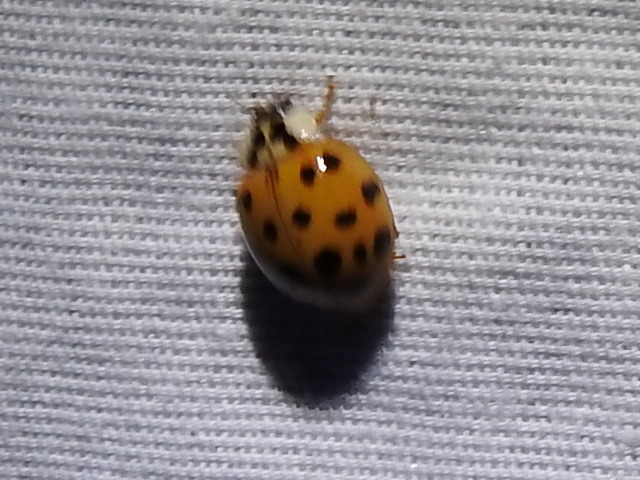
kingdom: Animalia
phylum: Arthropoda
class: Insecta
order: Coleoptera
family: Coccinellidae
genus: Harmonia
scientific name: Harmonia axyridis
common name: Harlequin ladybird
